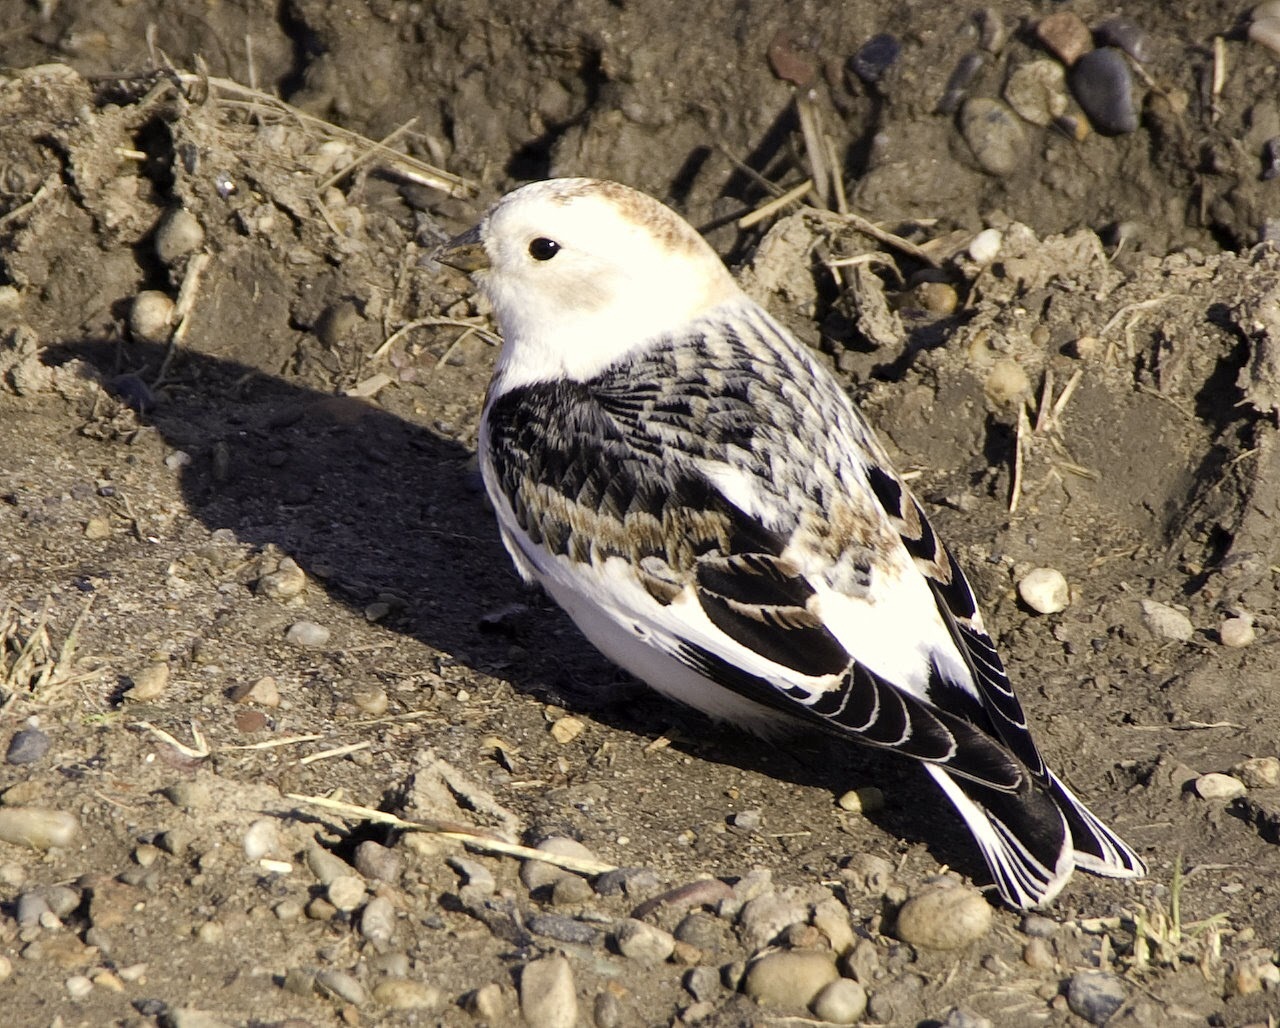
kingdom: Animalia
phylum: Chordata
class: Aves
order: Passeriformes
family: Calcariidae
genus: Plectrophenax
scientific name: Plectrophenax nivalis
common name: Snow bunting
